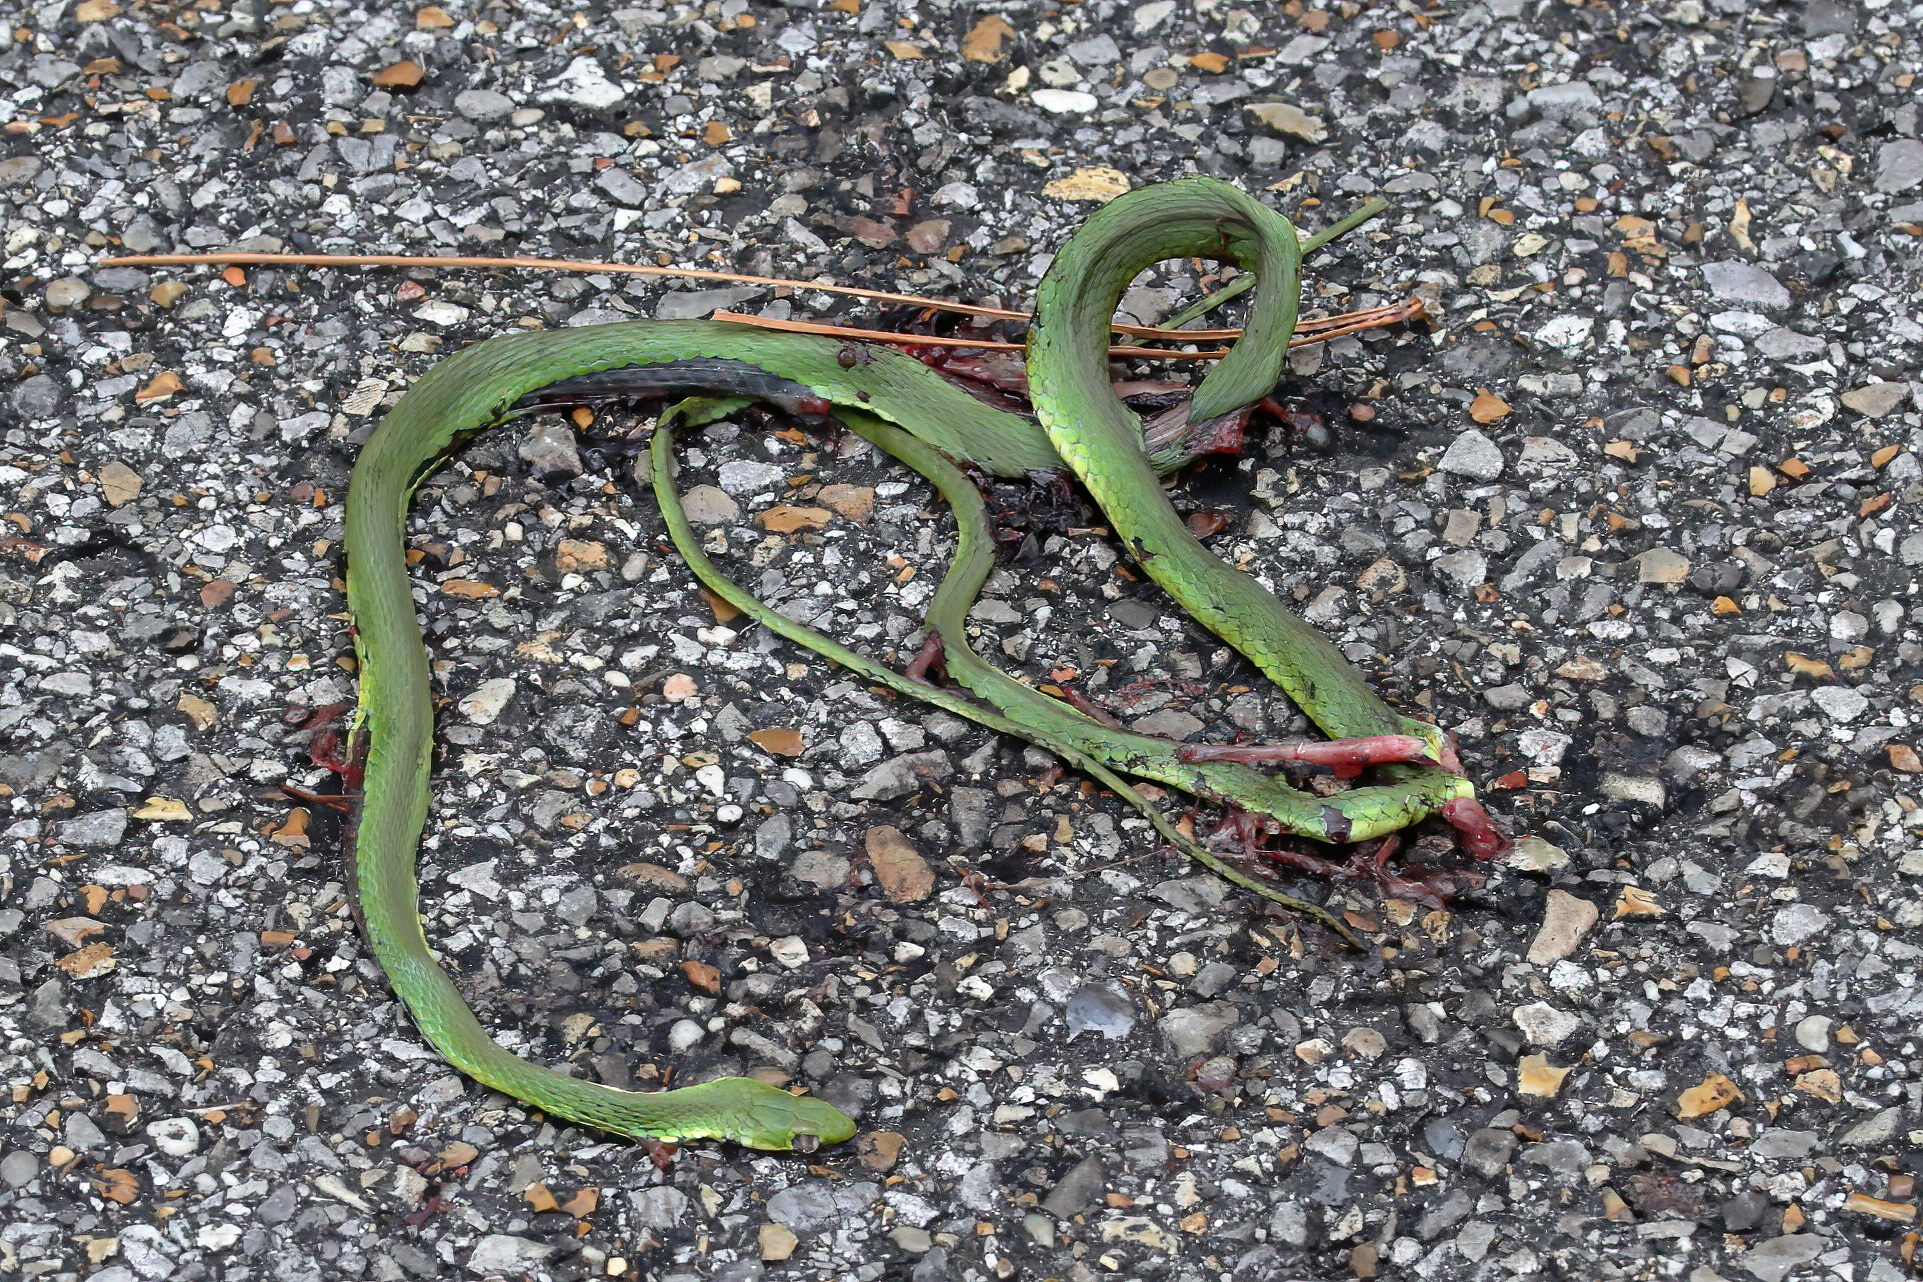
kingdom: Animalia
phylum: Chordata
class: Squamata
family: Colubridae
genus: Opheodrys
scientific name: Opheodrys aestivus
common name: Rough greensnake
